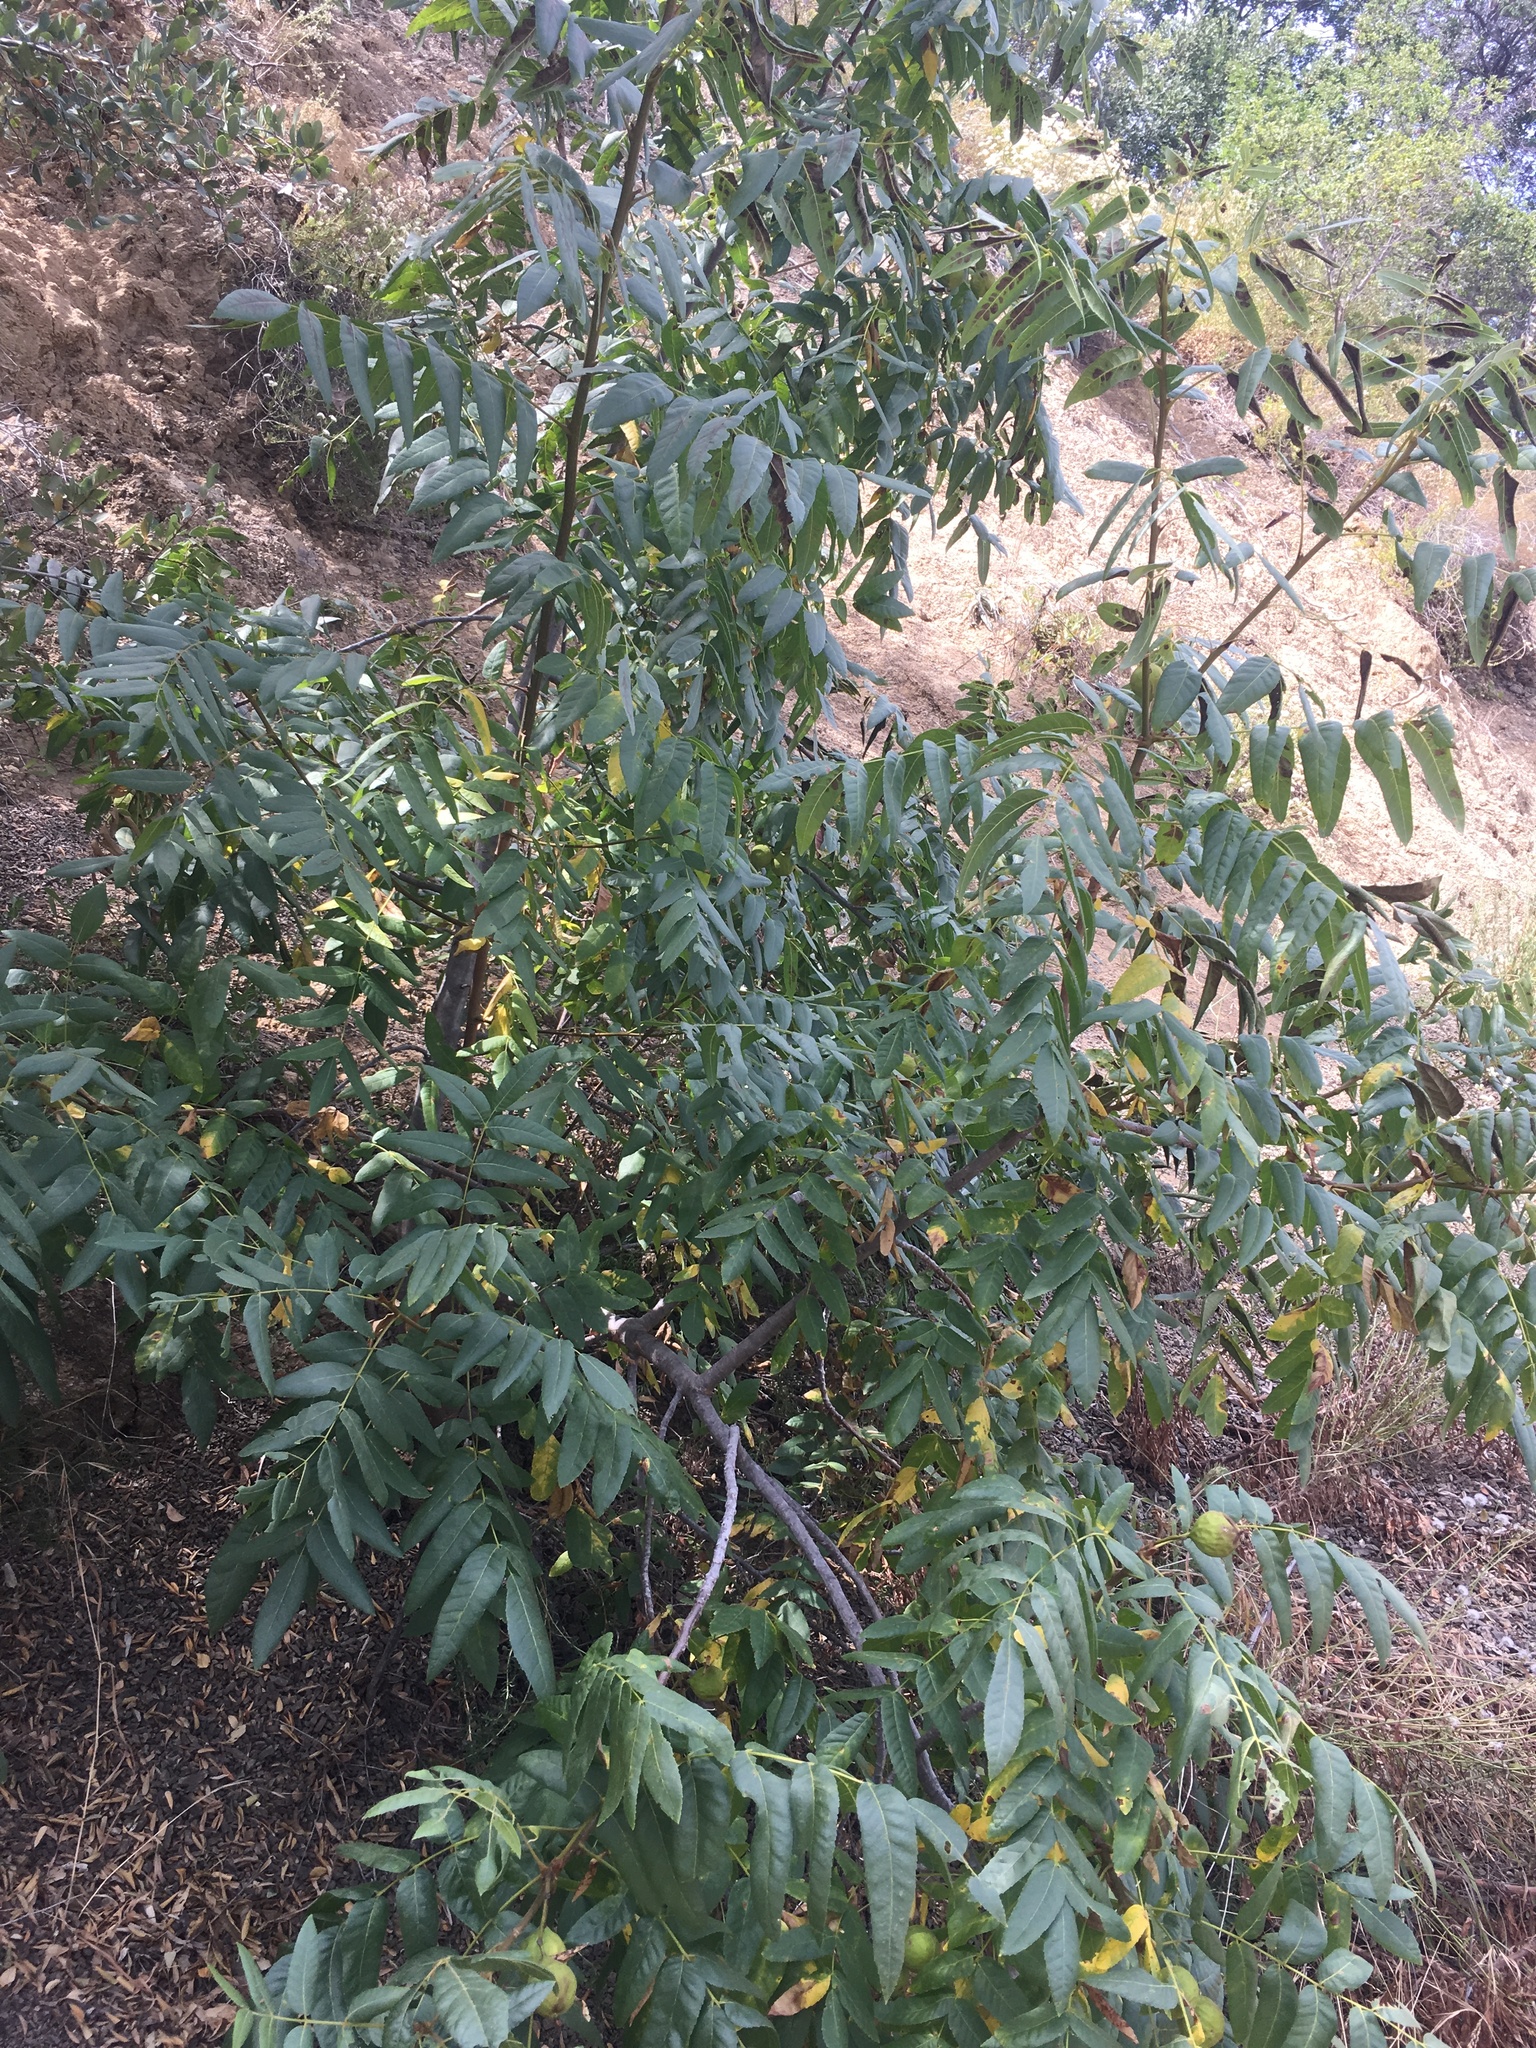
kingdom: Plantae
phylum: Tracheophyta
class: Magnoliopsida
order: Fagales
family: Juglandaceae
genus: Juglans
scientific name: Juglans californica
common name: Southern california black walnut
